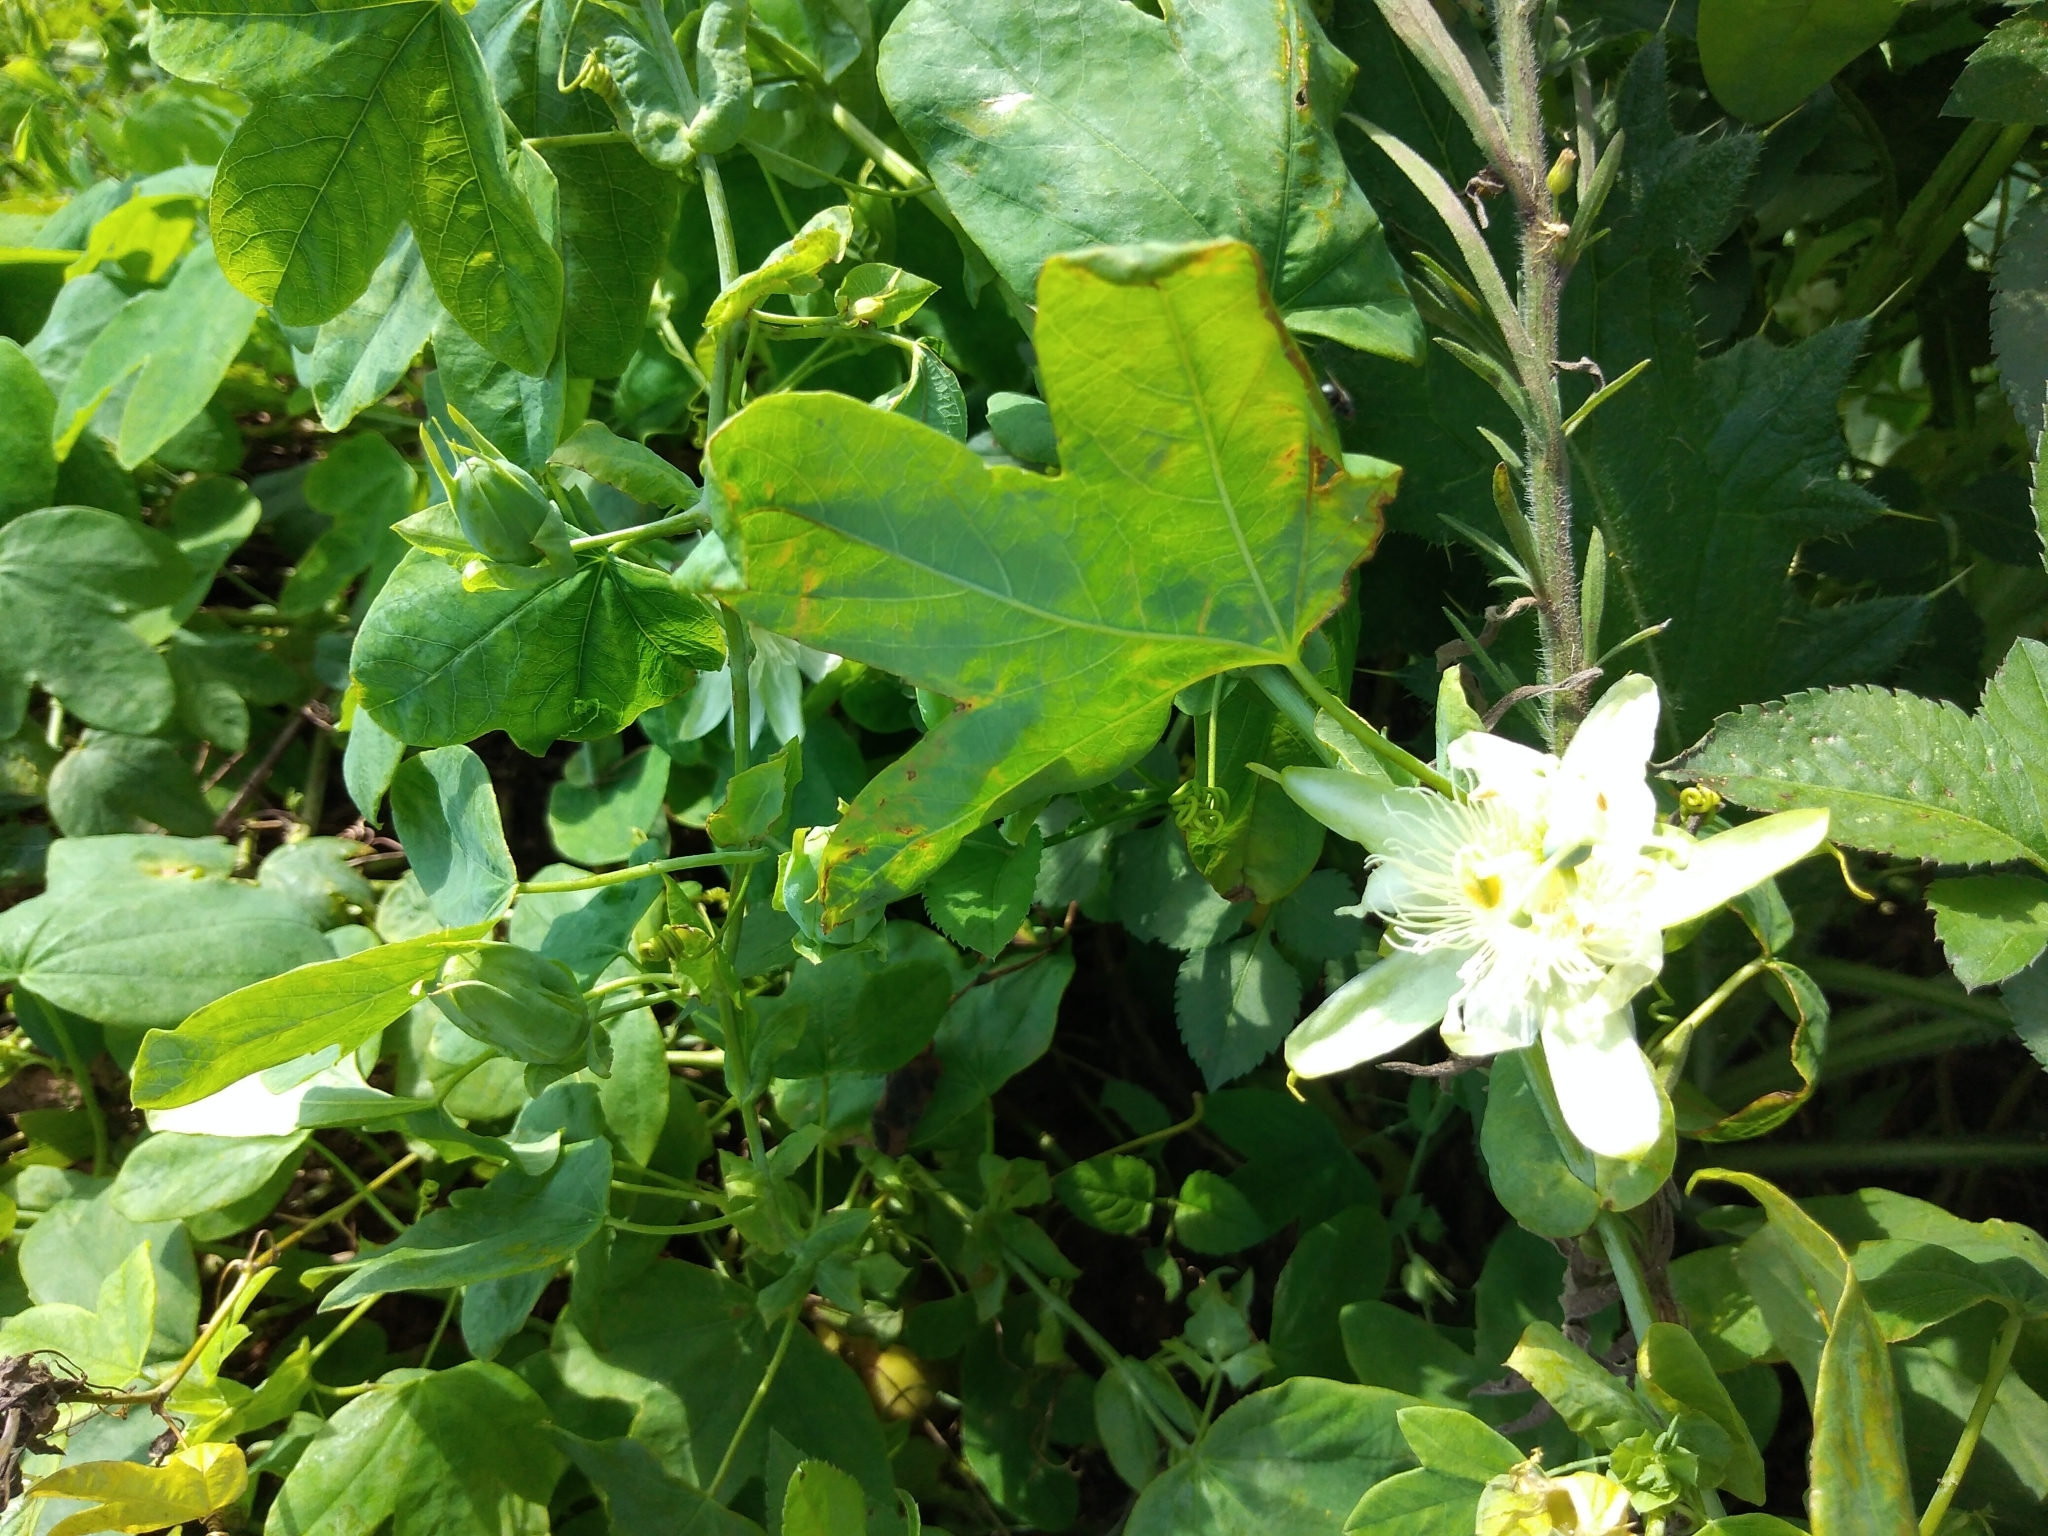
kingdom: Plantae
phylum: Tracheophyta
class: Magnoliopsida
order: Malpighiales
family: Passifloraceae
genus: Passiflora
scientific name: Passiflora subpeltata
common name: White passionflower
